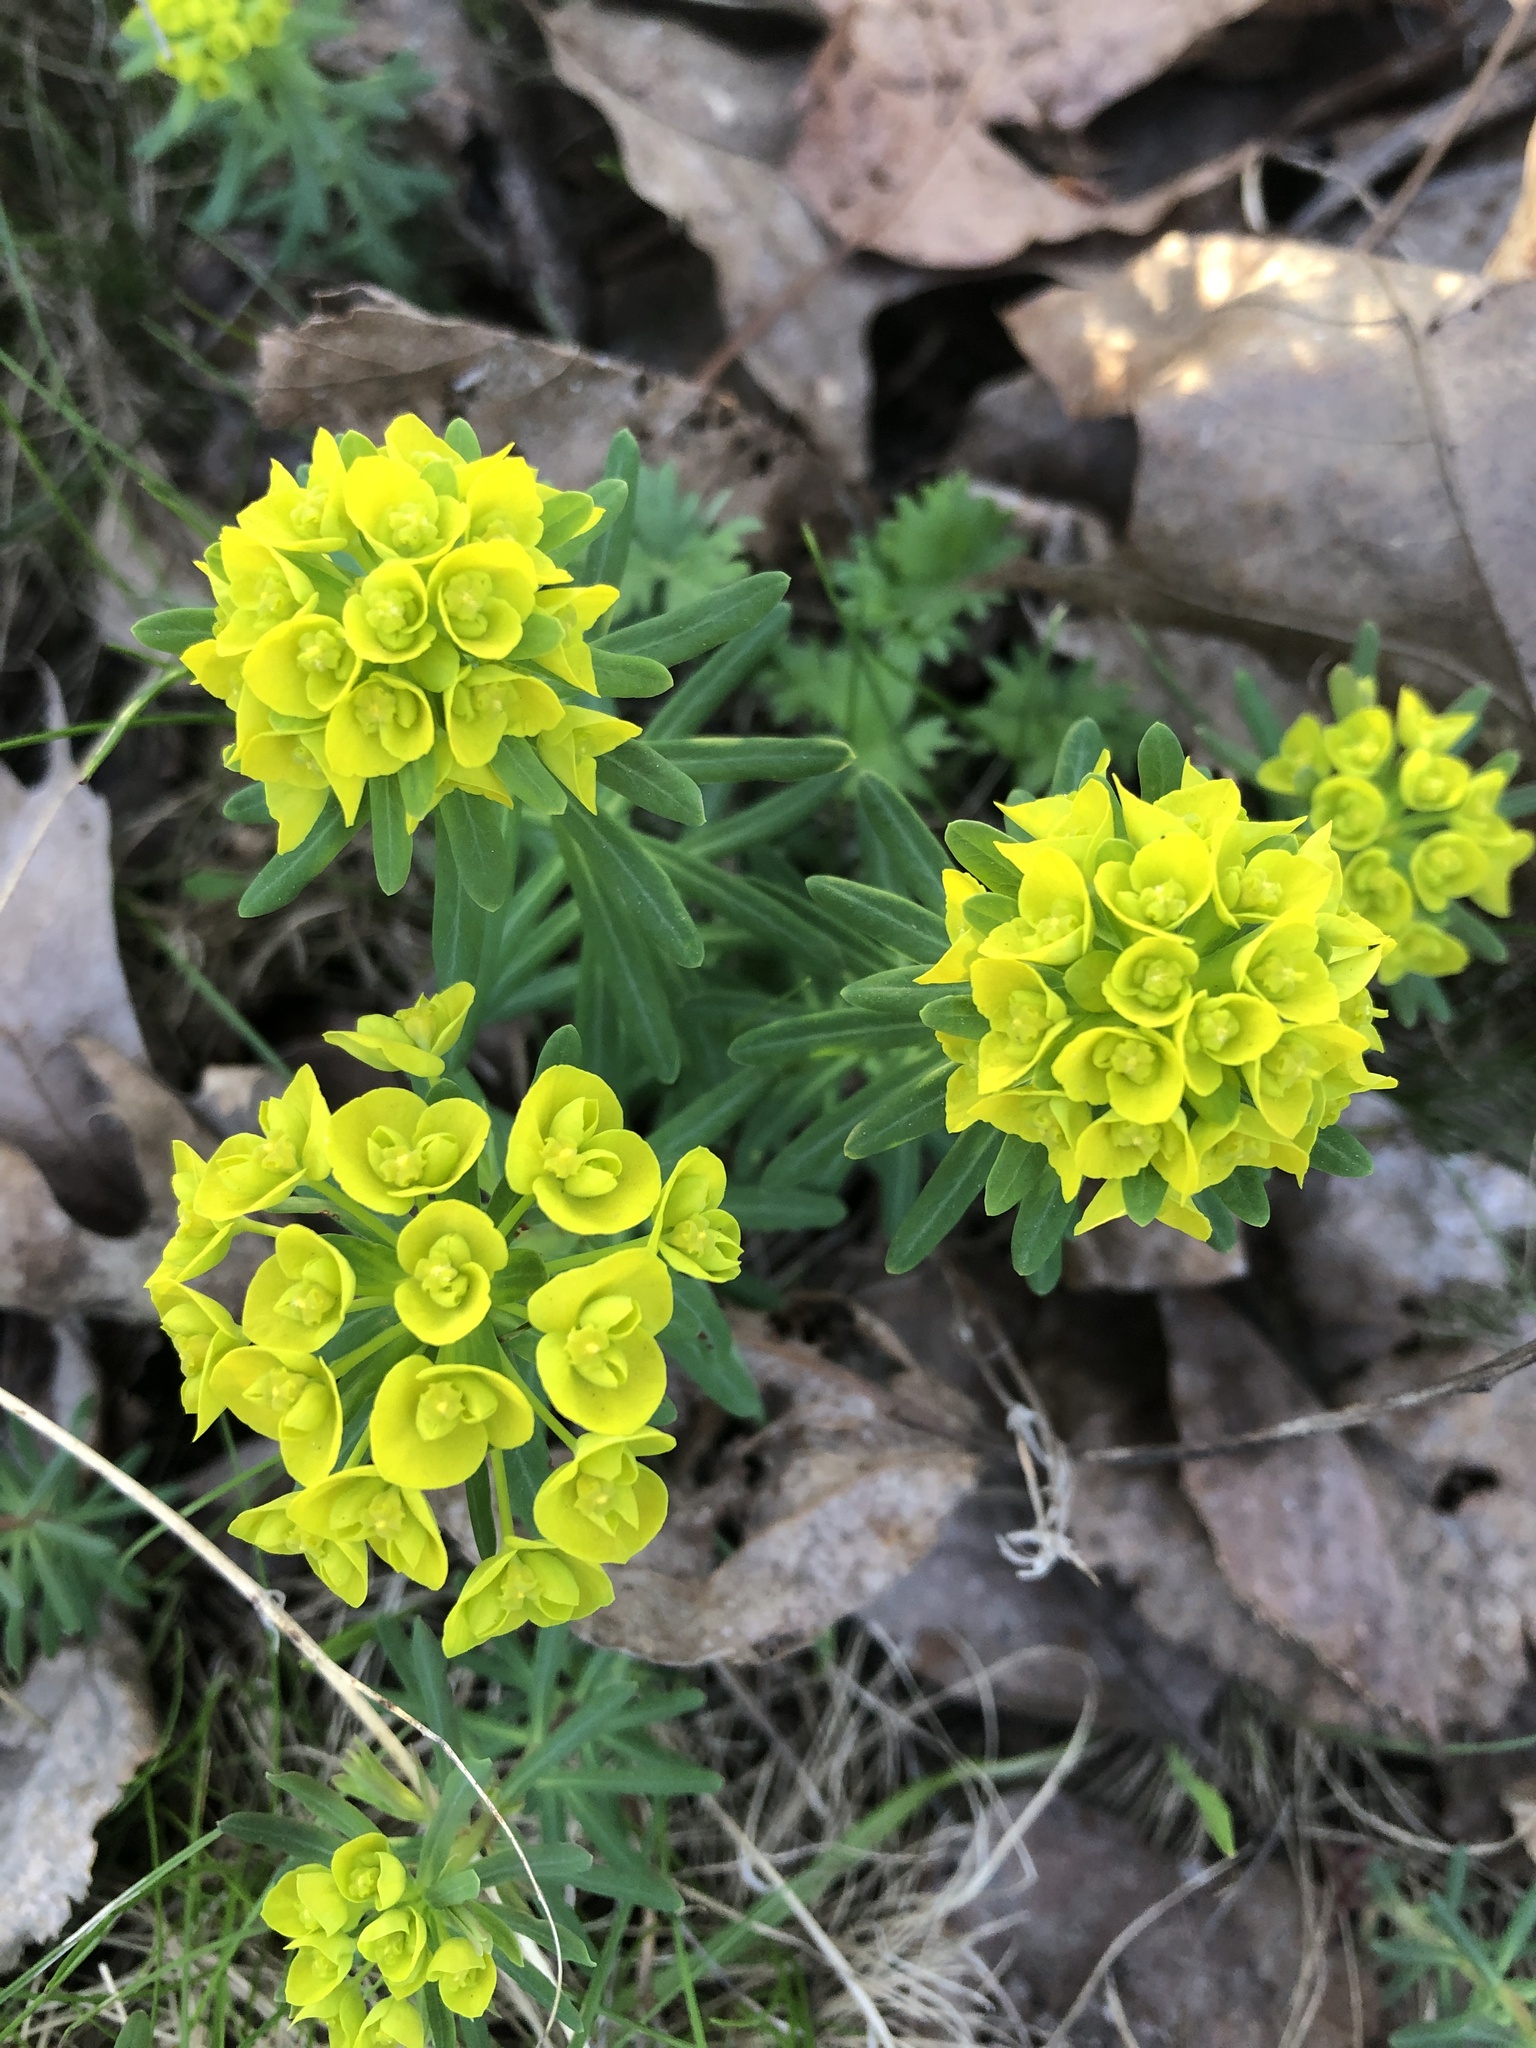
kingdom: Plantae
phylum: Tracheophyta
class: Magnoliopsida
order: Malpighiales
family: Euphorbiaceae
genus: Euphorbia
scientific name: Euphorbia cyparissias
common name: Cypress spurge
